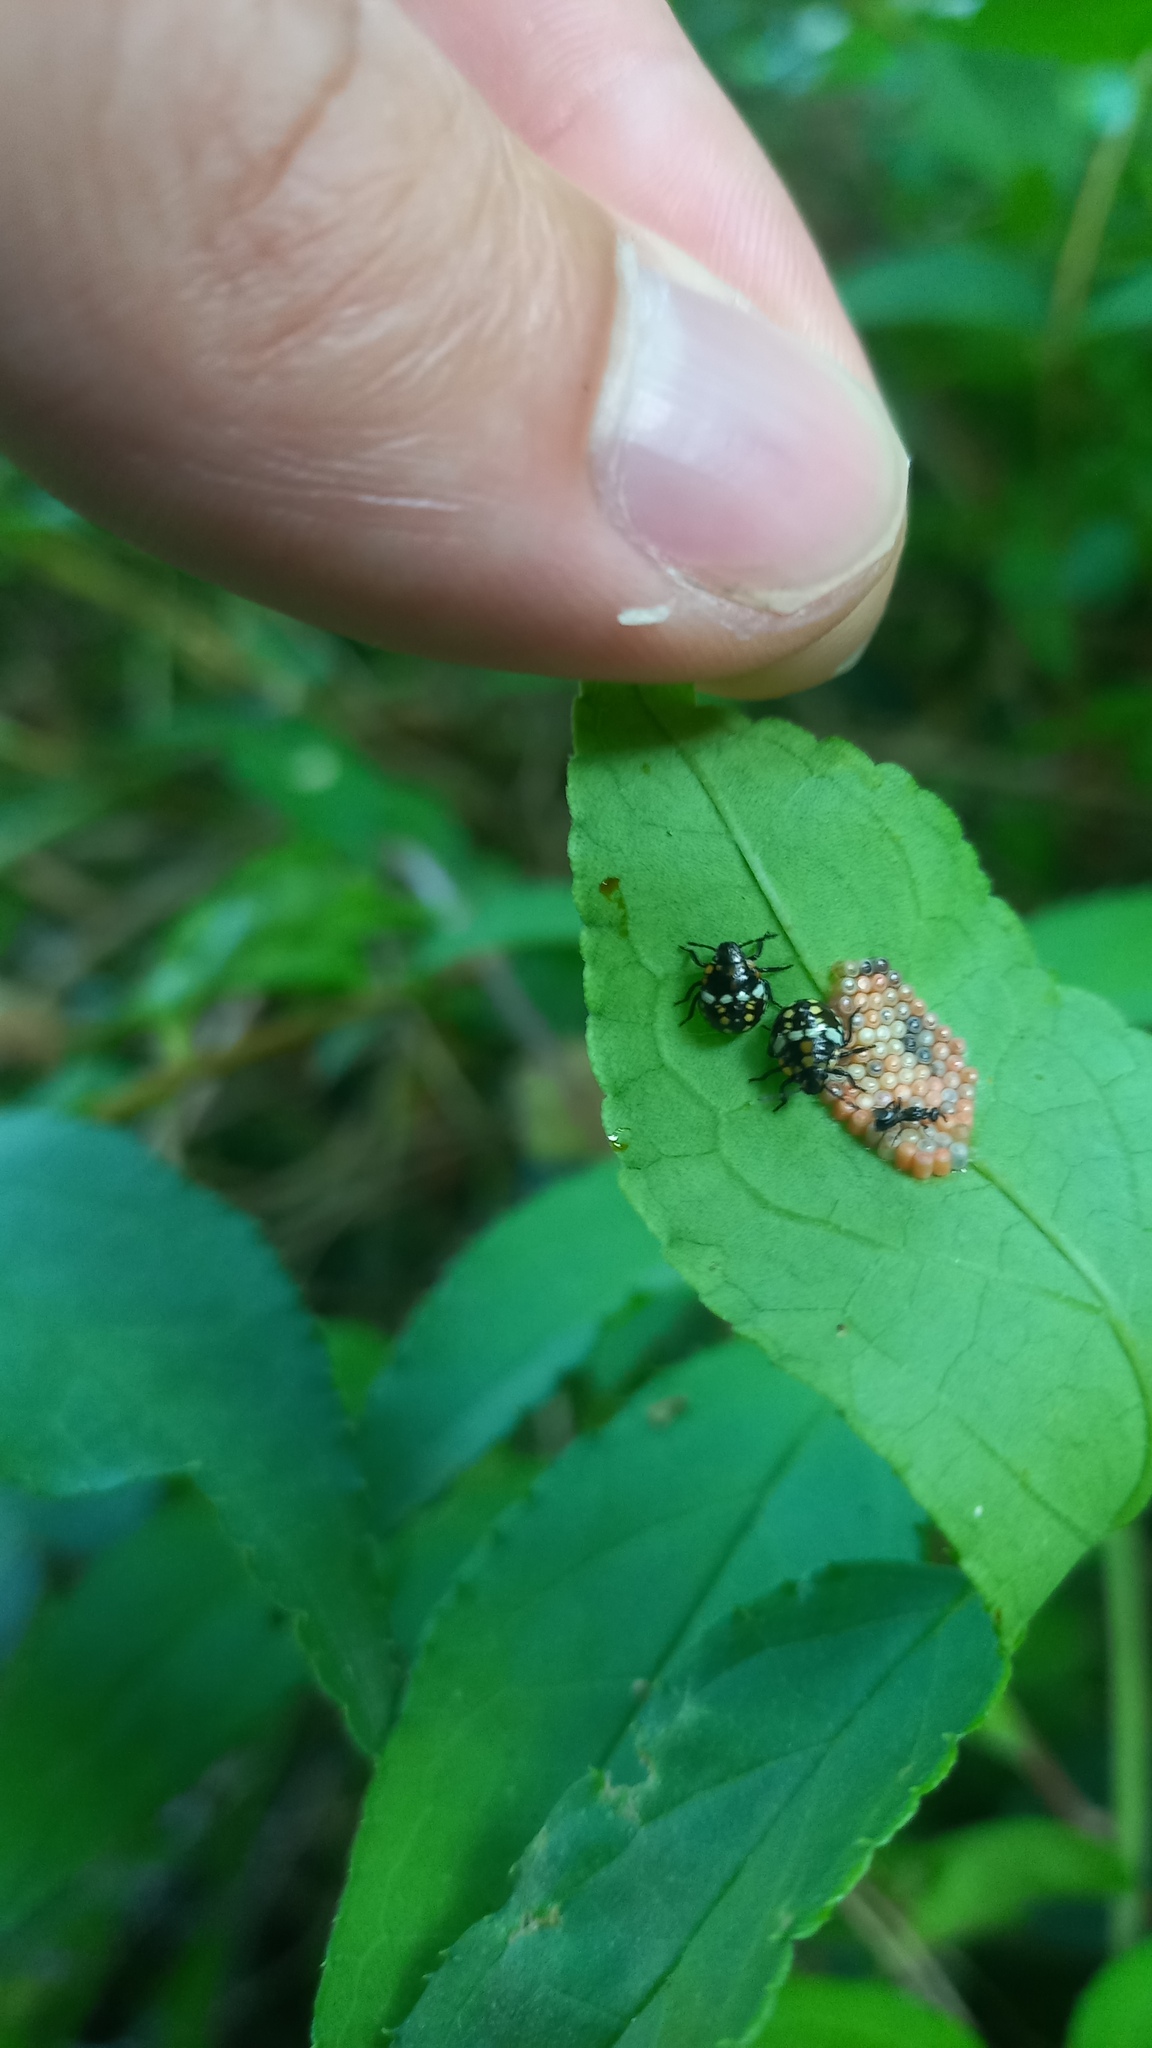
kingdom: Animalia
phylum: Arthropoda
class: Insecta
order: Hemiptera
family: Pentatomidae
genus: Nezara
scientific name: Nezara viridula
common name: Southern green stink bug
